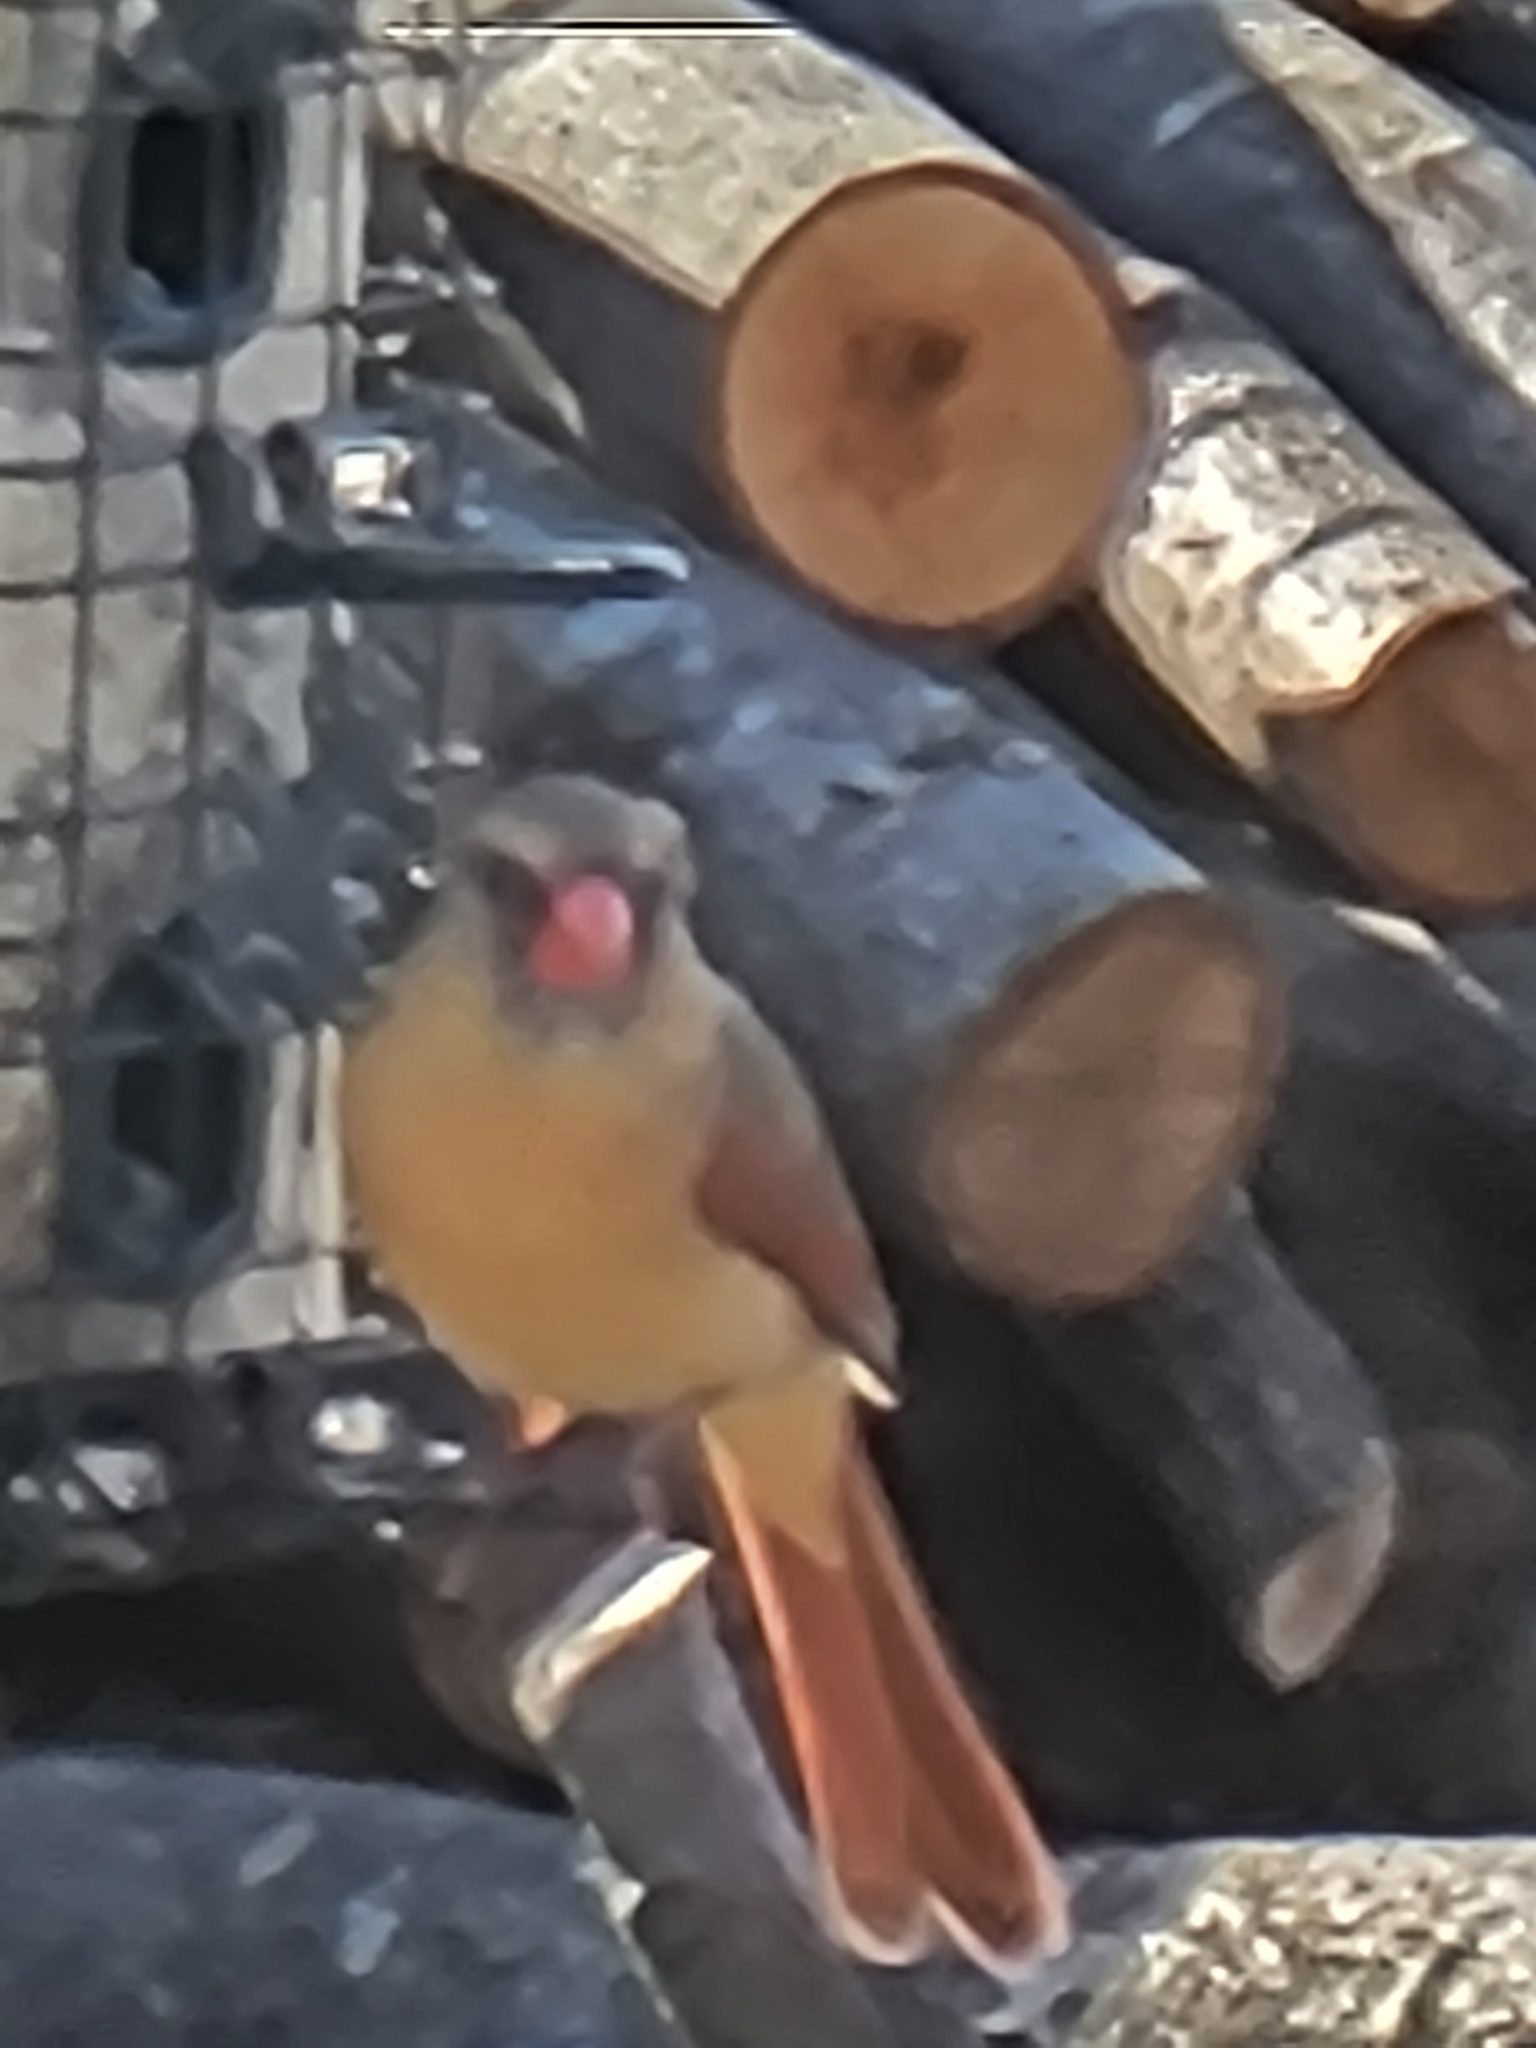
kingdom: Animalia
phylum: Chordata
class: Aves
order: Passeriformes
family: Cardinalidae
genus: Cardinalis
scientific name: Cardinalis cardinalis
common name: Northern cardinal
